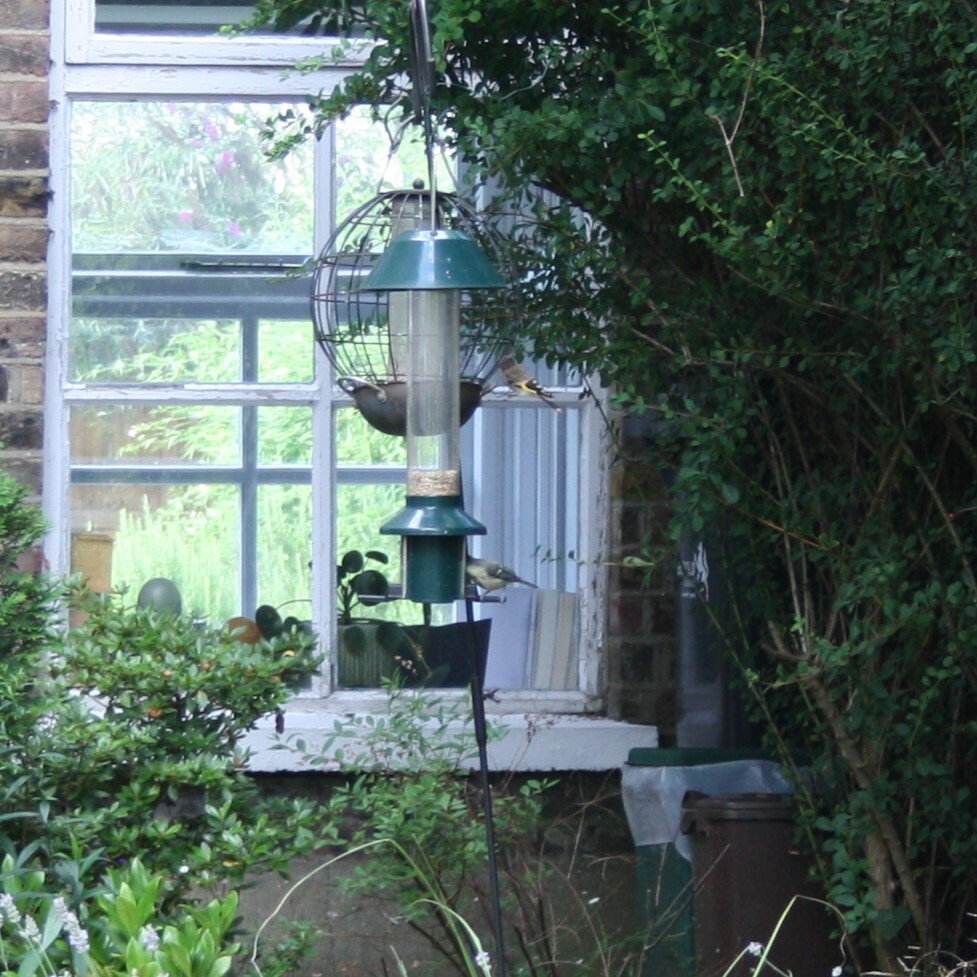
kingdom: Animalia
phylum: Chordata
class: Aves
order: Passeriformes
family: Fringillidae
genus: Carduelis
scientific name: Carduelis carduelis
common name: European goldfinch
